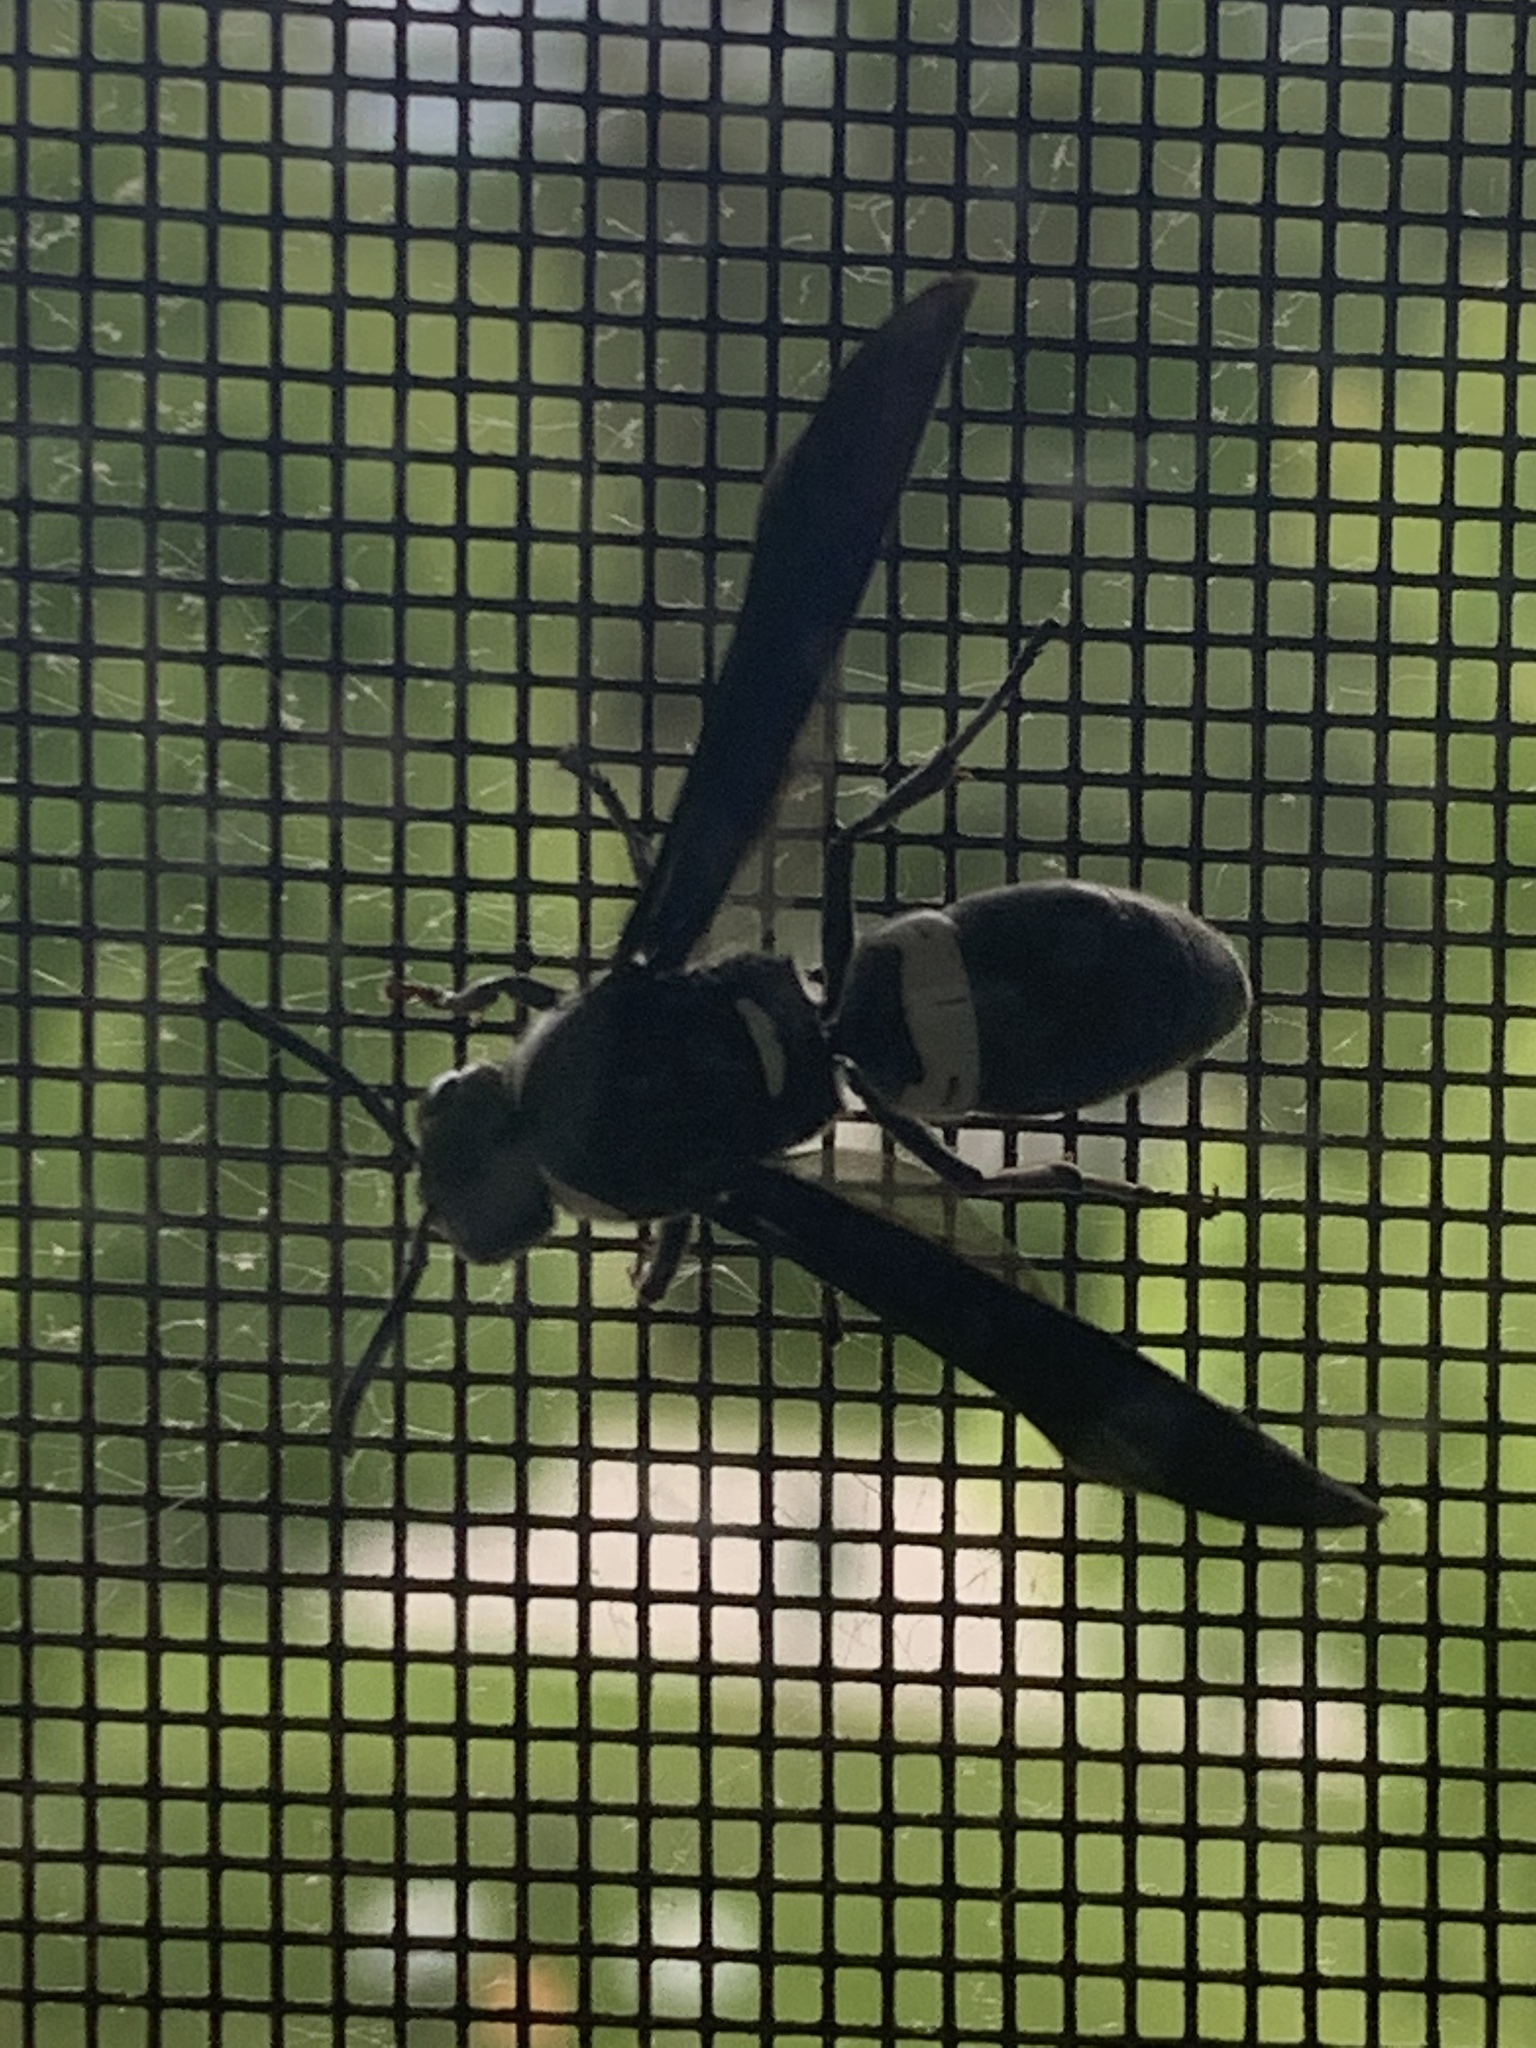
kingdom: Animalia
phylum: Arthropoda
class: Insecta
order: Hymenoptera
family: Eumenidae
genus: Monobia
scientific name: Monobia quadridens
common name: Four-toothed mason wasp
